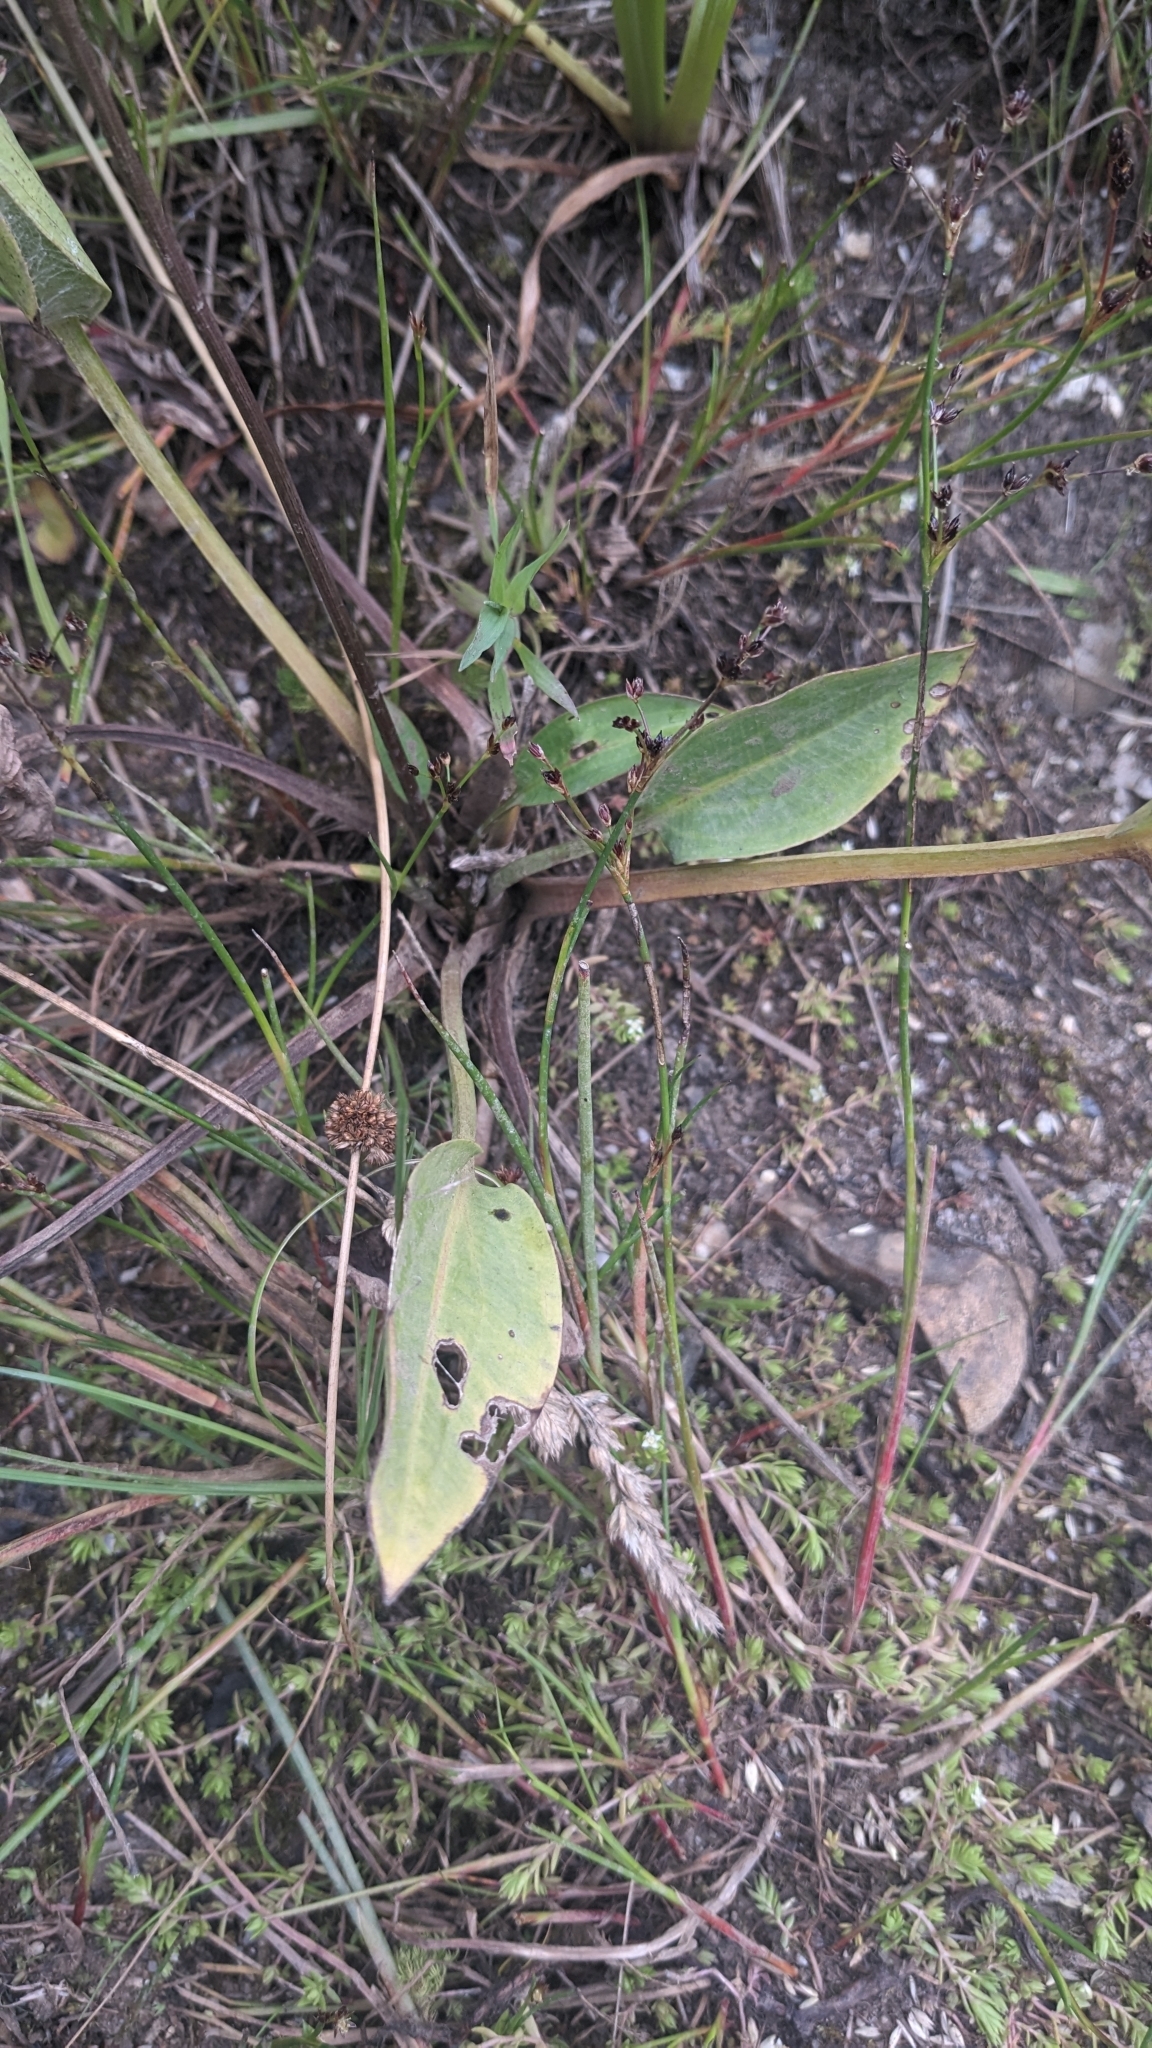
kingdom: Plantae
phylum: Tracheophyta
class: Liliopsida
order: Alismatales
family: Alismataceae
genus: Alisma
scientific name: Alisma plantago-aquatica
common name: Water-plantain
